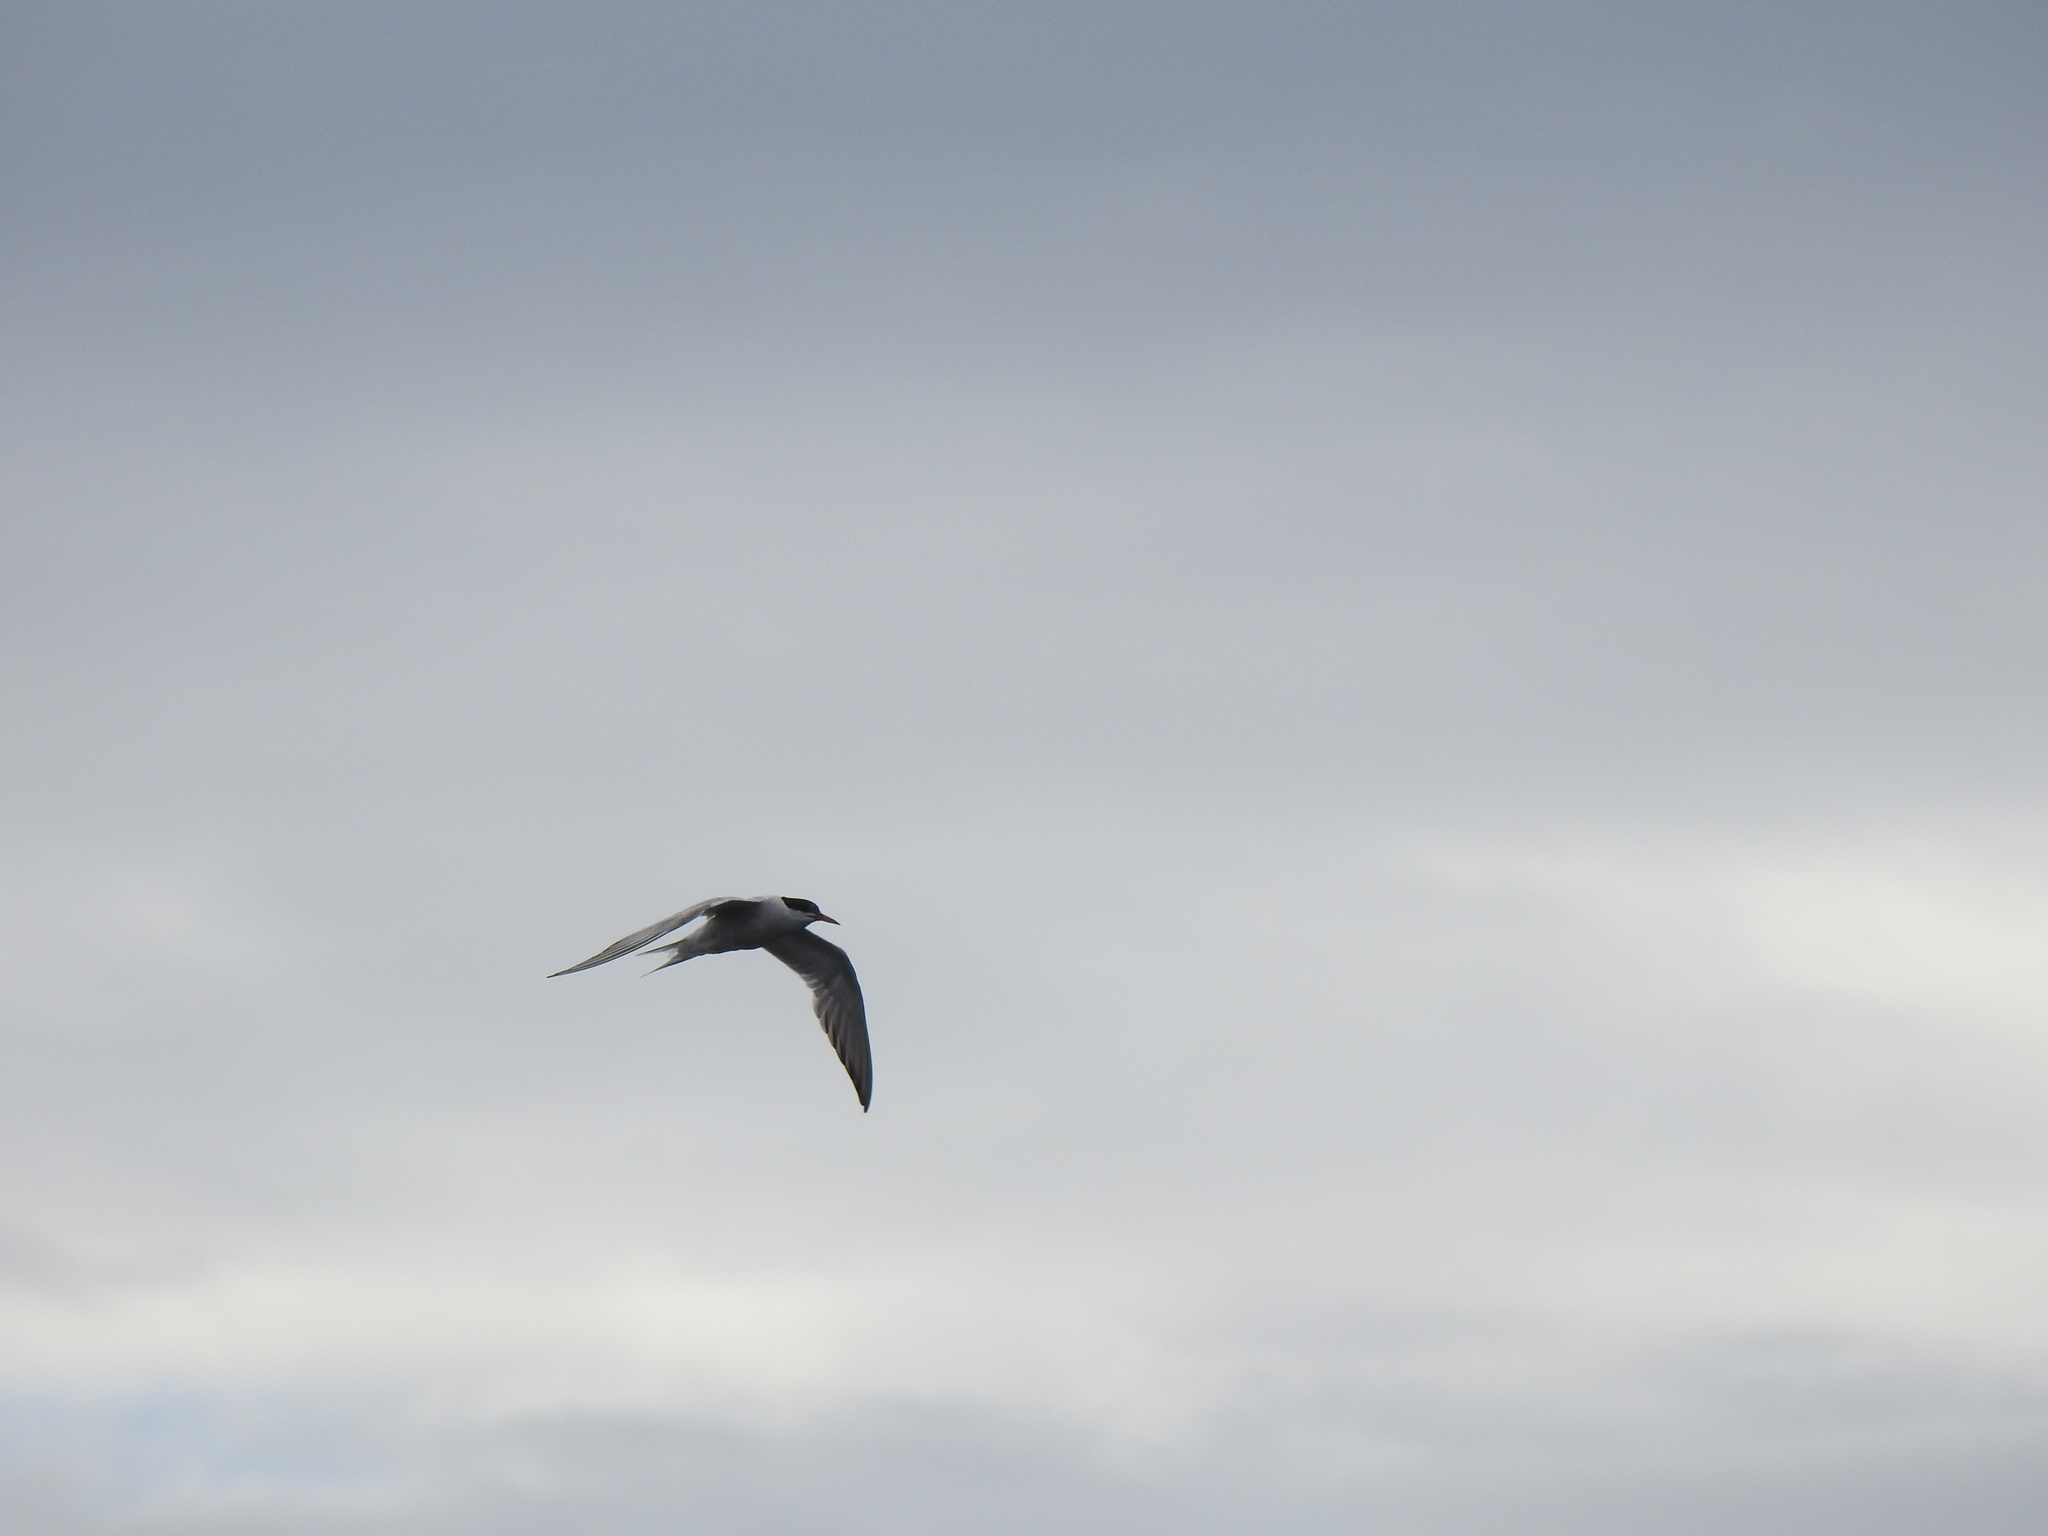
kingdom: Animalia
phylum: Chordata
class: Aves
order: Charadriiformes
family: Laridae
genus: Sterna
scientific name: Sterna hirundo
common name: Common tern
